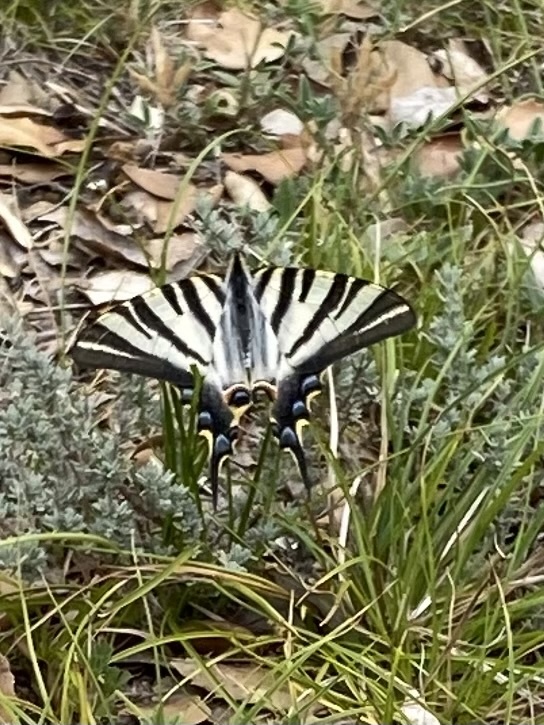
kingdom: Animalia
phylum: Arthropoda
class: Insecta
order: Lepidoptera
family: Papilionidae
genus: Iphiclides
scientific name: Iphiclides feisthamelii
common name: Iberian scarce swallowtail
